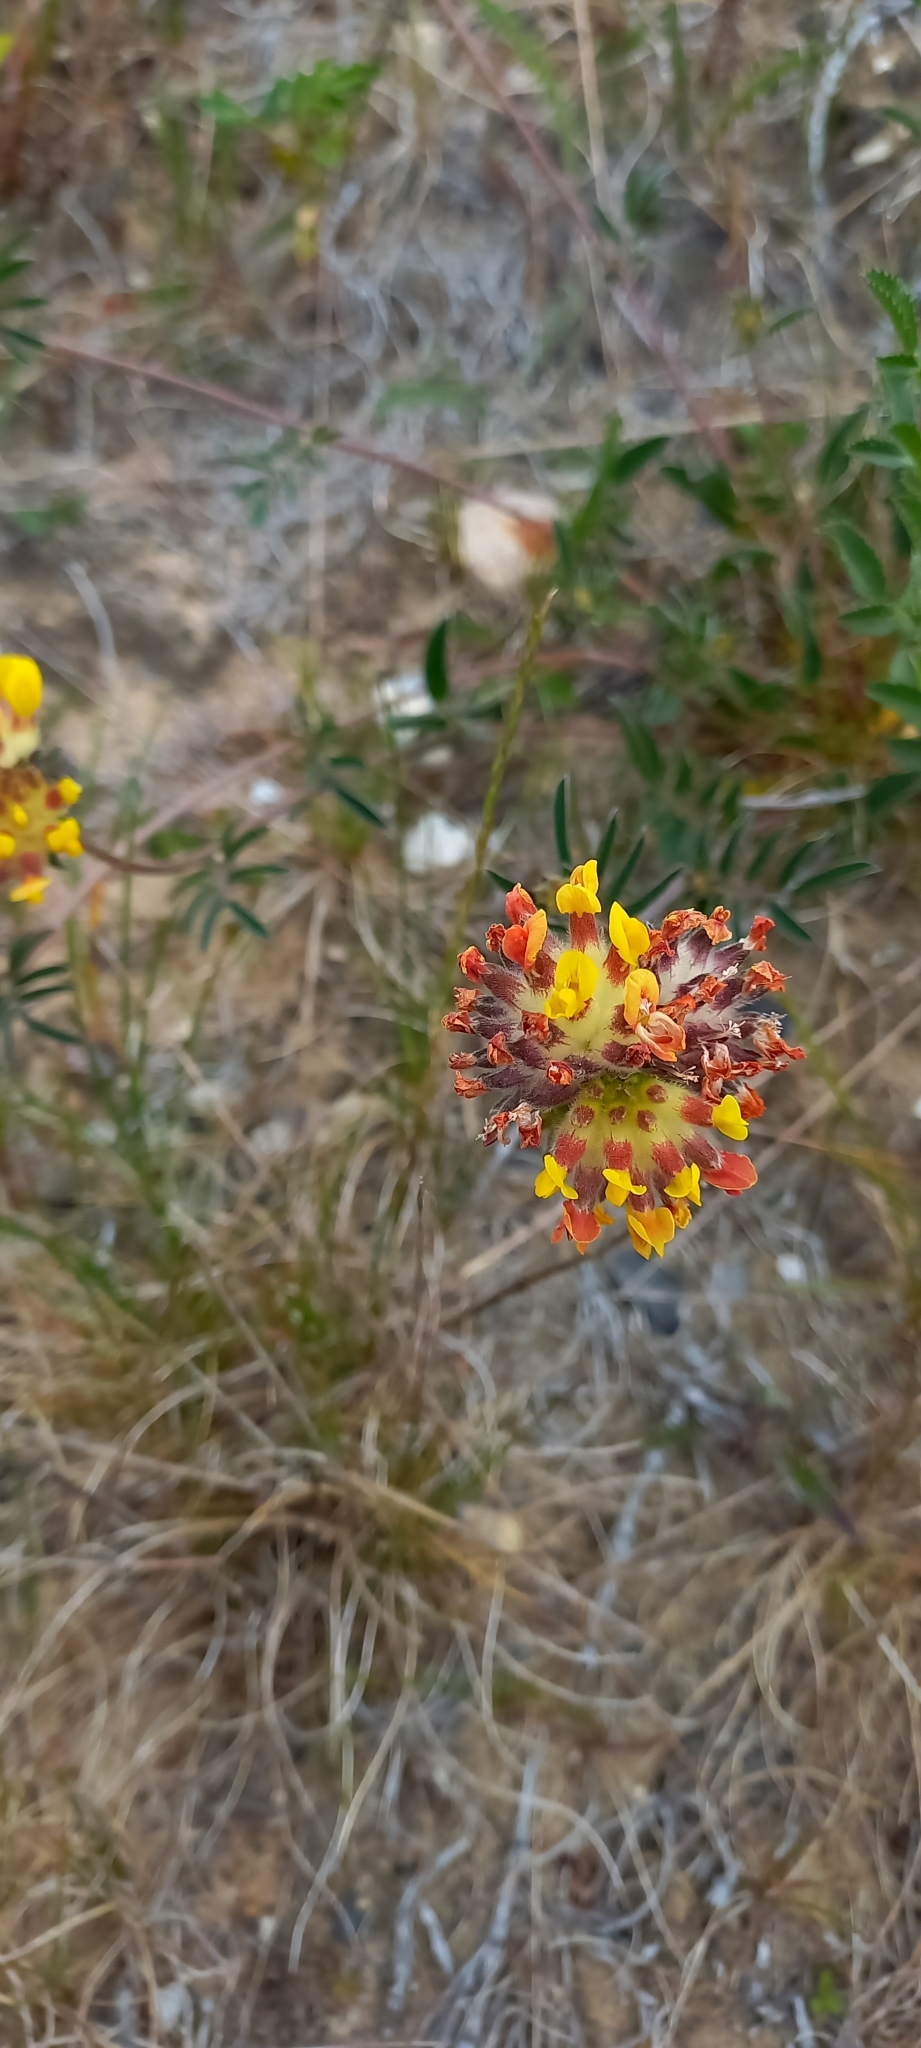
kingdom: Plantae
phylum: Tracheophyta
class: Magnoliopsida
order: Fabales
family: Fabaceae
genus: Anthyllis
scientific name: Anthyllis vulneraria
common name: Kidney vetch
